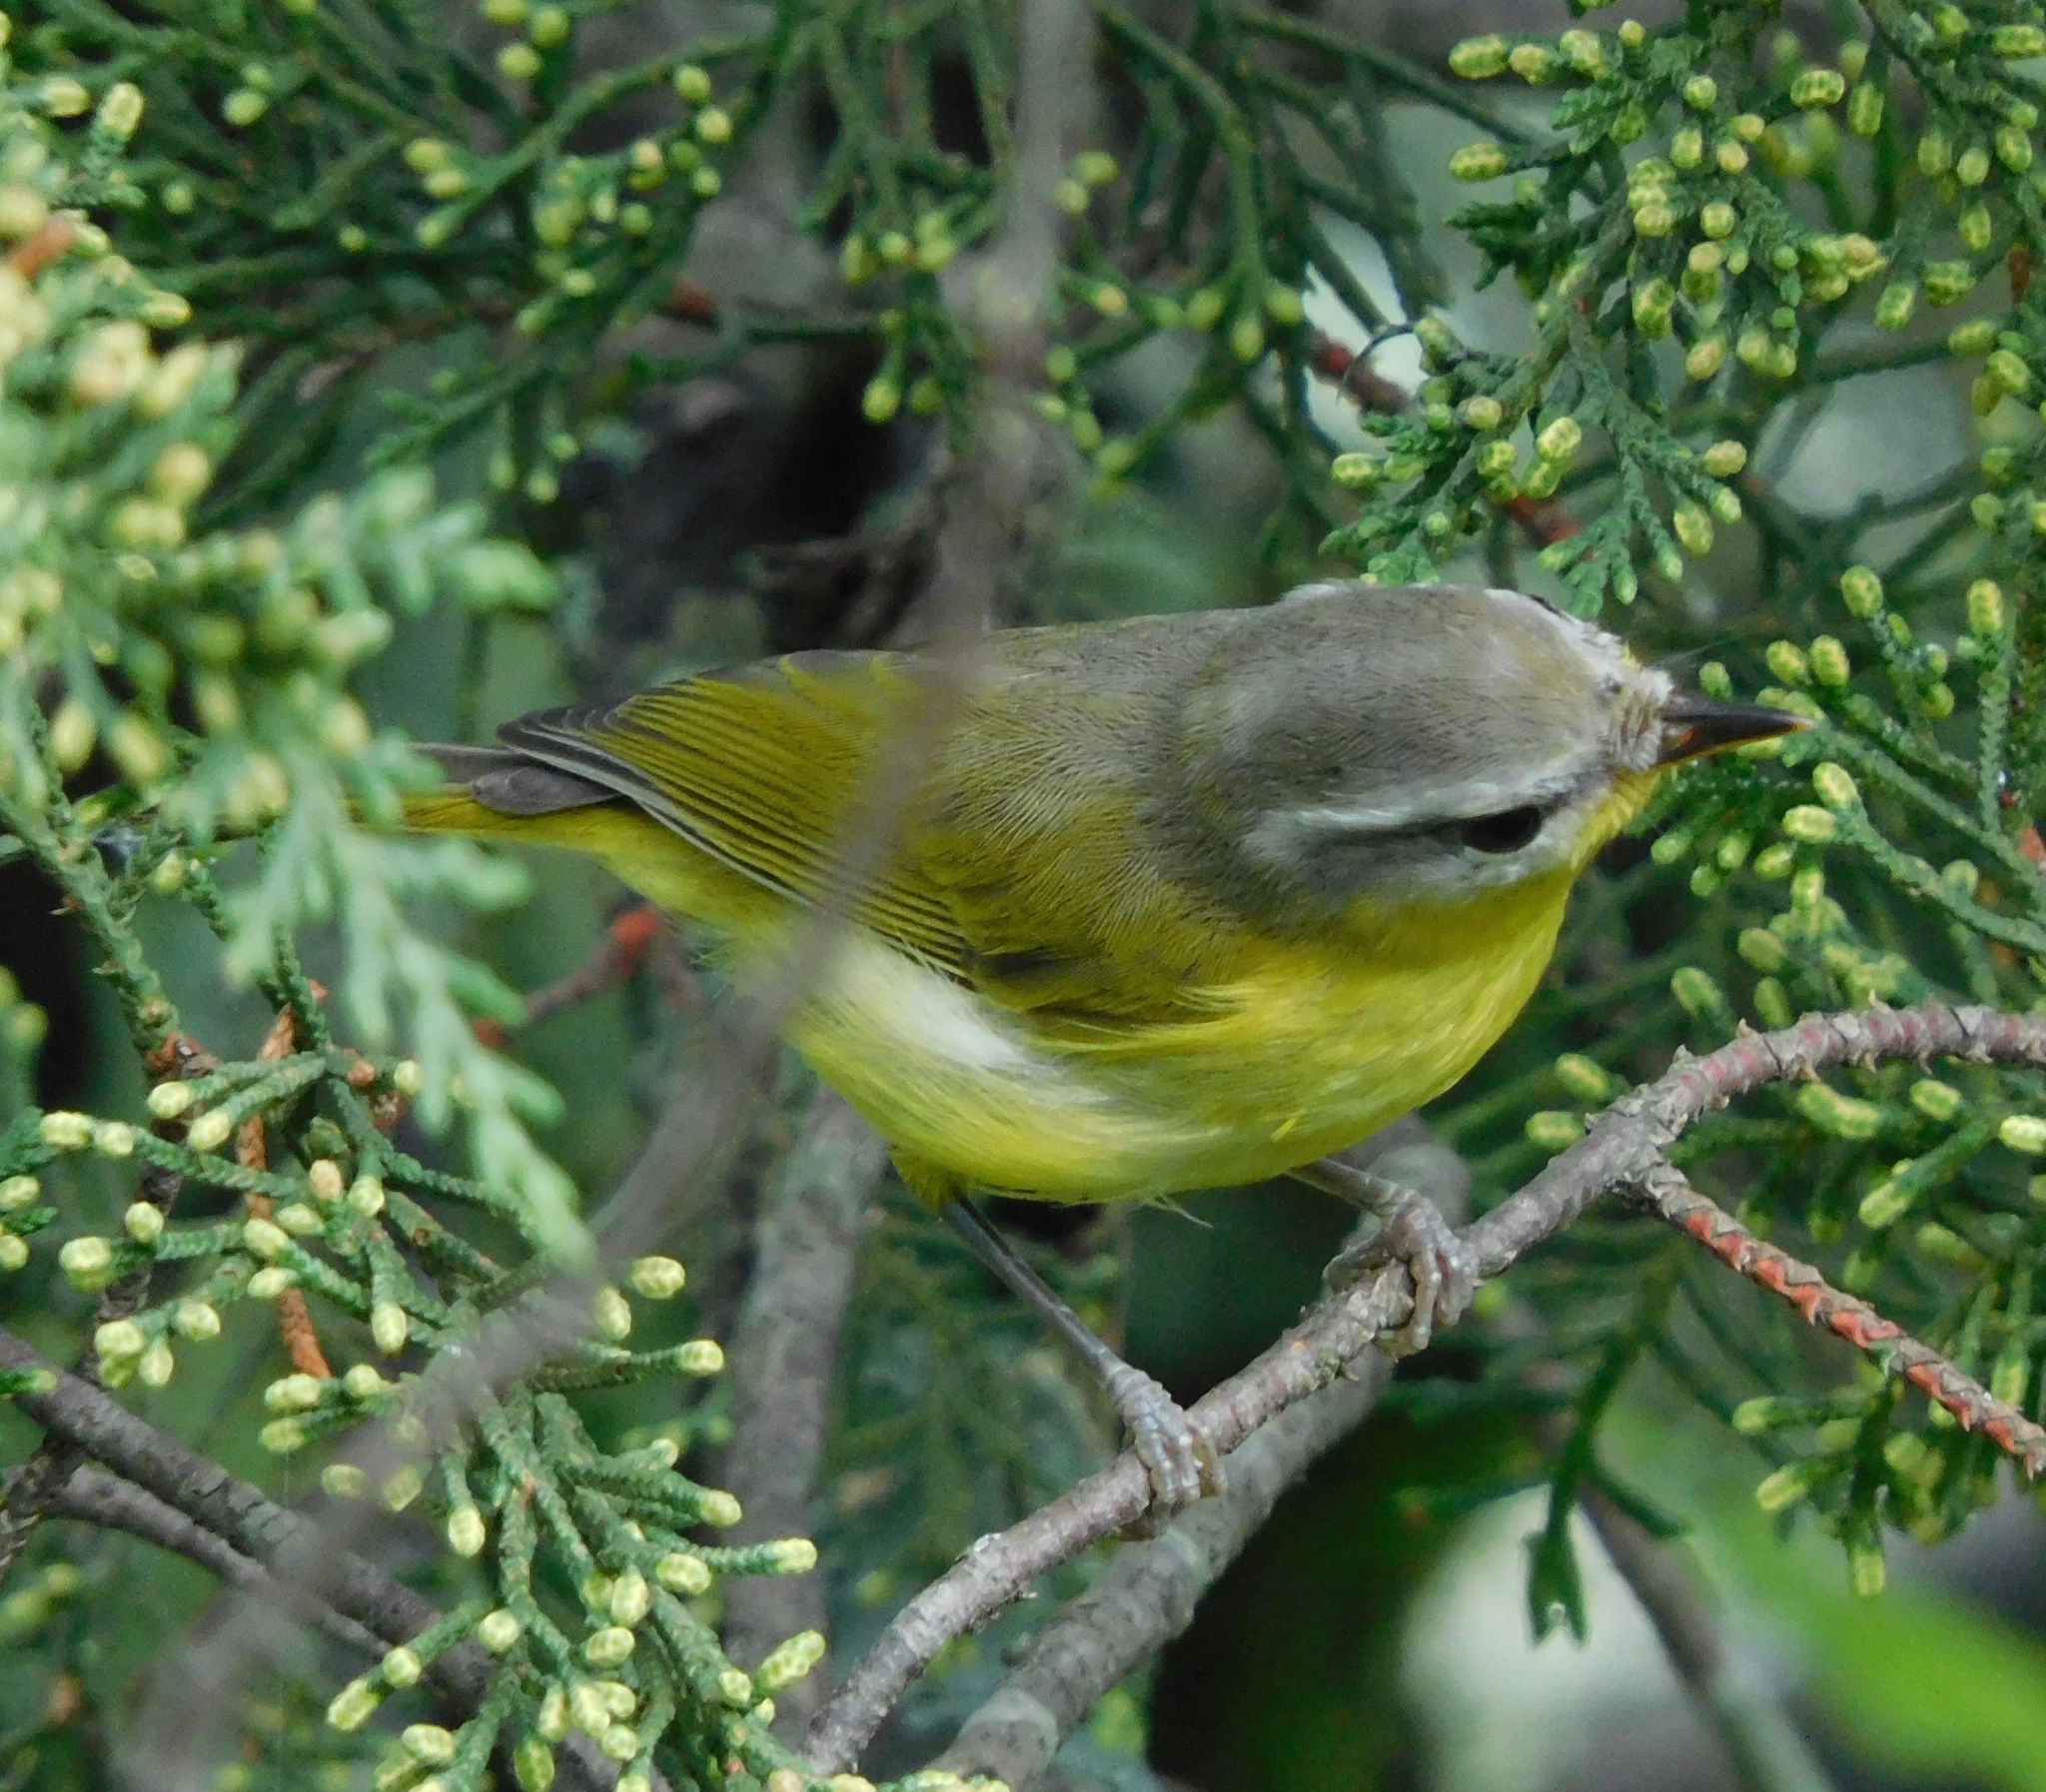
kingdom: Animalia
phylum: Chordata
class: Aves
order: Passeriformes
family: Phylloscopidae
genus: Phylloscopus
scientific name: Phylloscopus xanthoschistos
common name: Grey-hooded warbler
